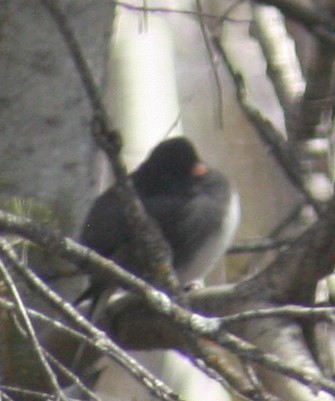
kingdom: Animalia
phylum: Chordata
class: Aves
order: Passeriformes
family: Passerellidae
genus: Junco
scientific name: Junco hyemalis
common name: Dark-eyed junco
